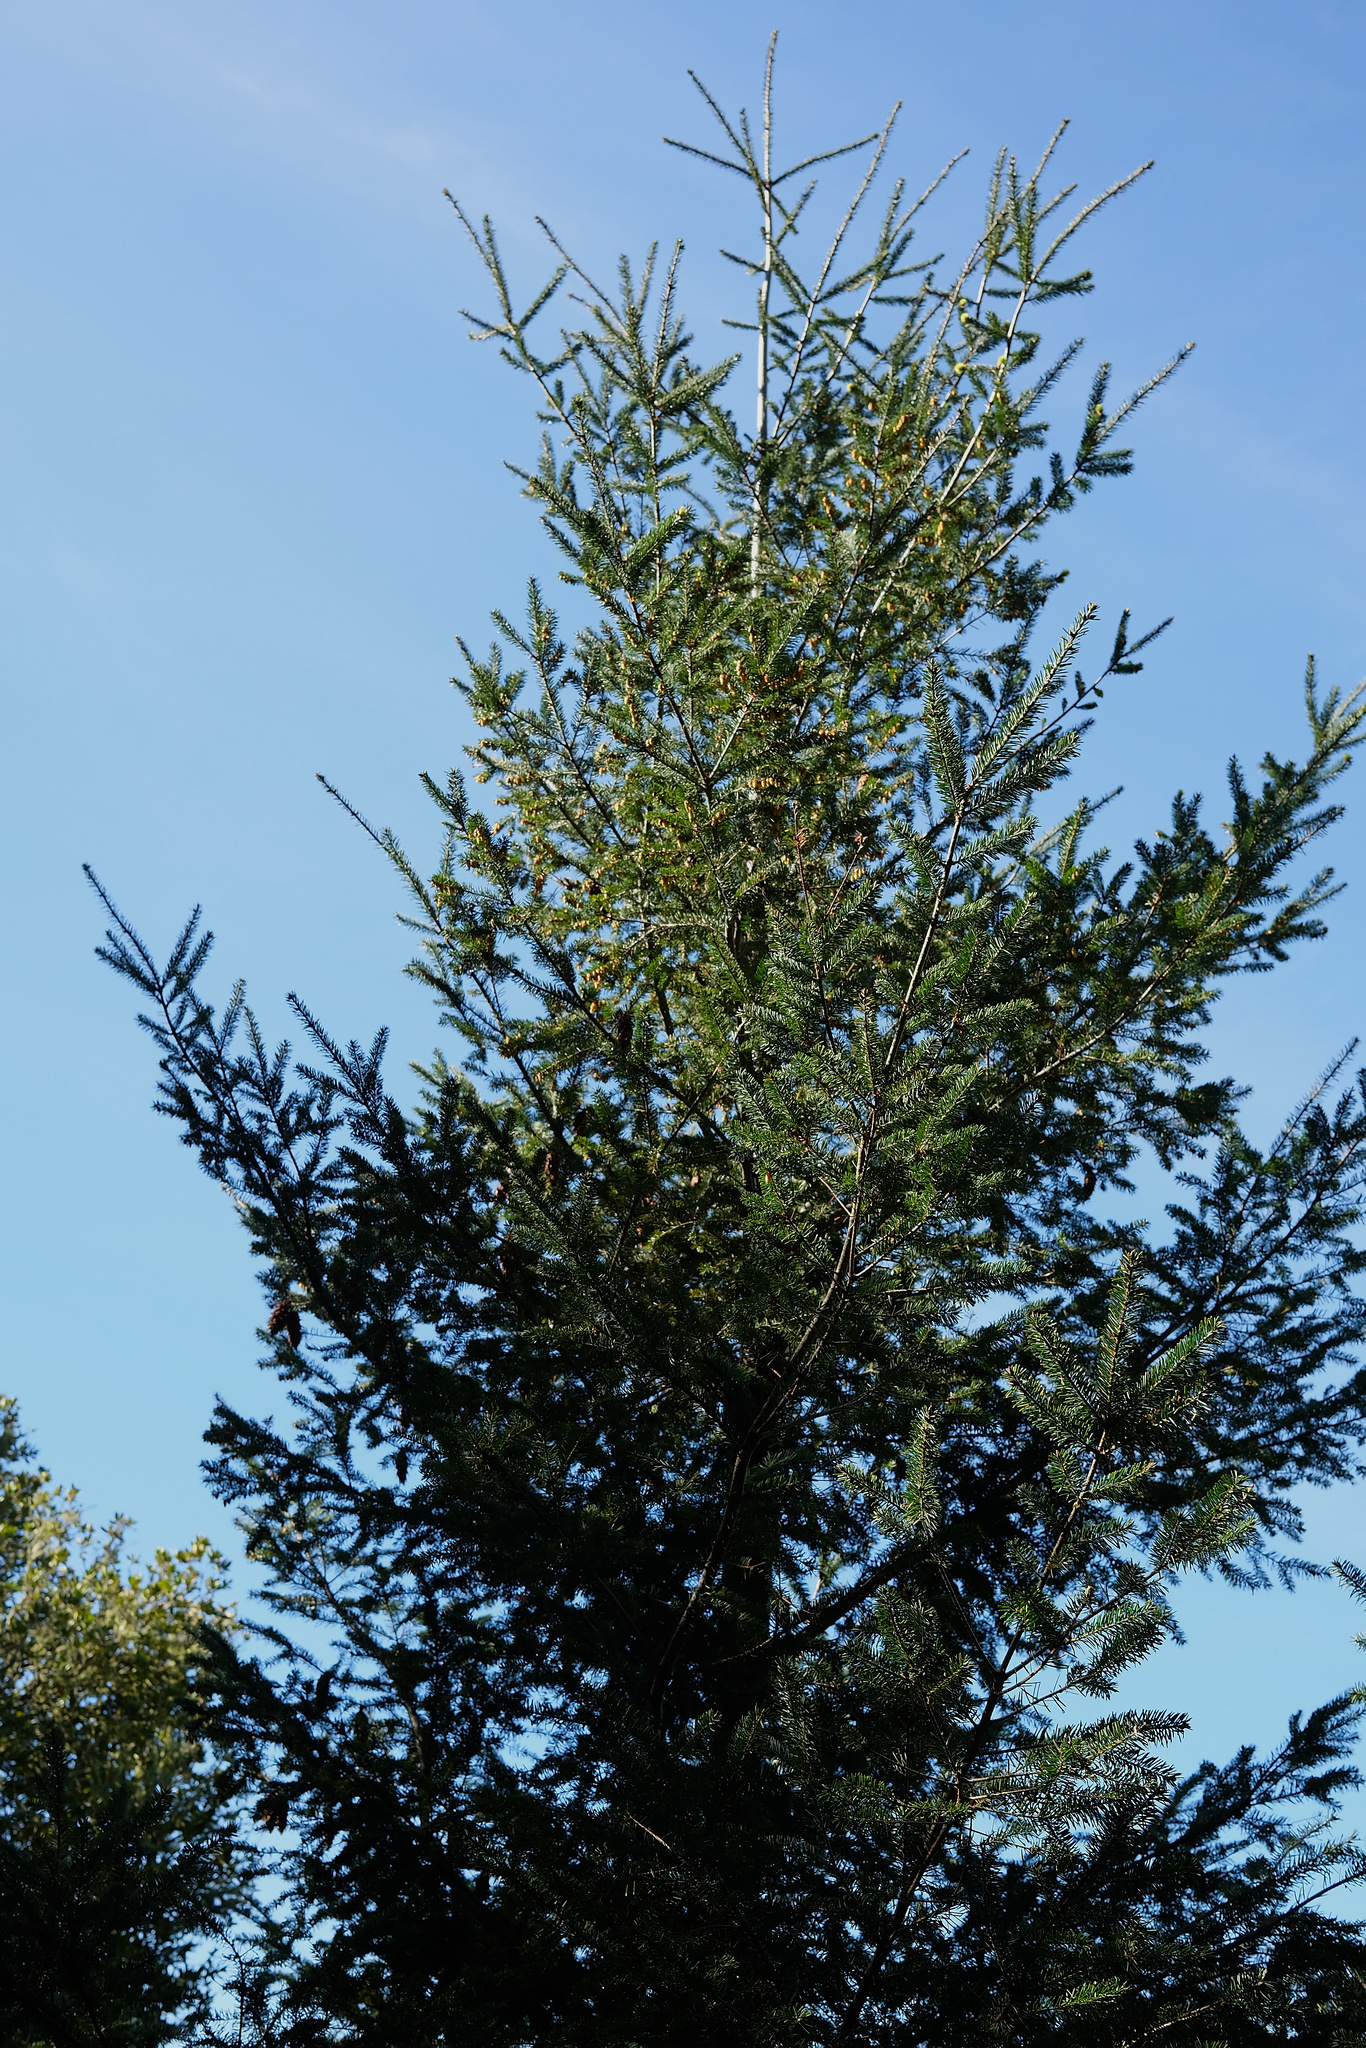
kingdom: Plantae
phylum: Tracheophyta
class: Pinopsida
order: Pinales
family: Pinaceae
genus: Pseudotsuga
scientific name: Pseudotsuga menziesii
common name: Douglas fir
